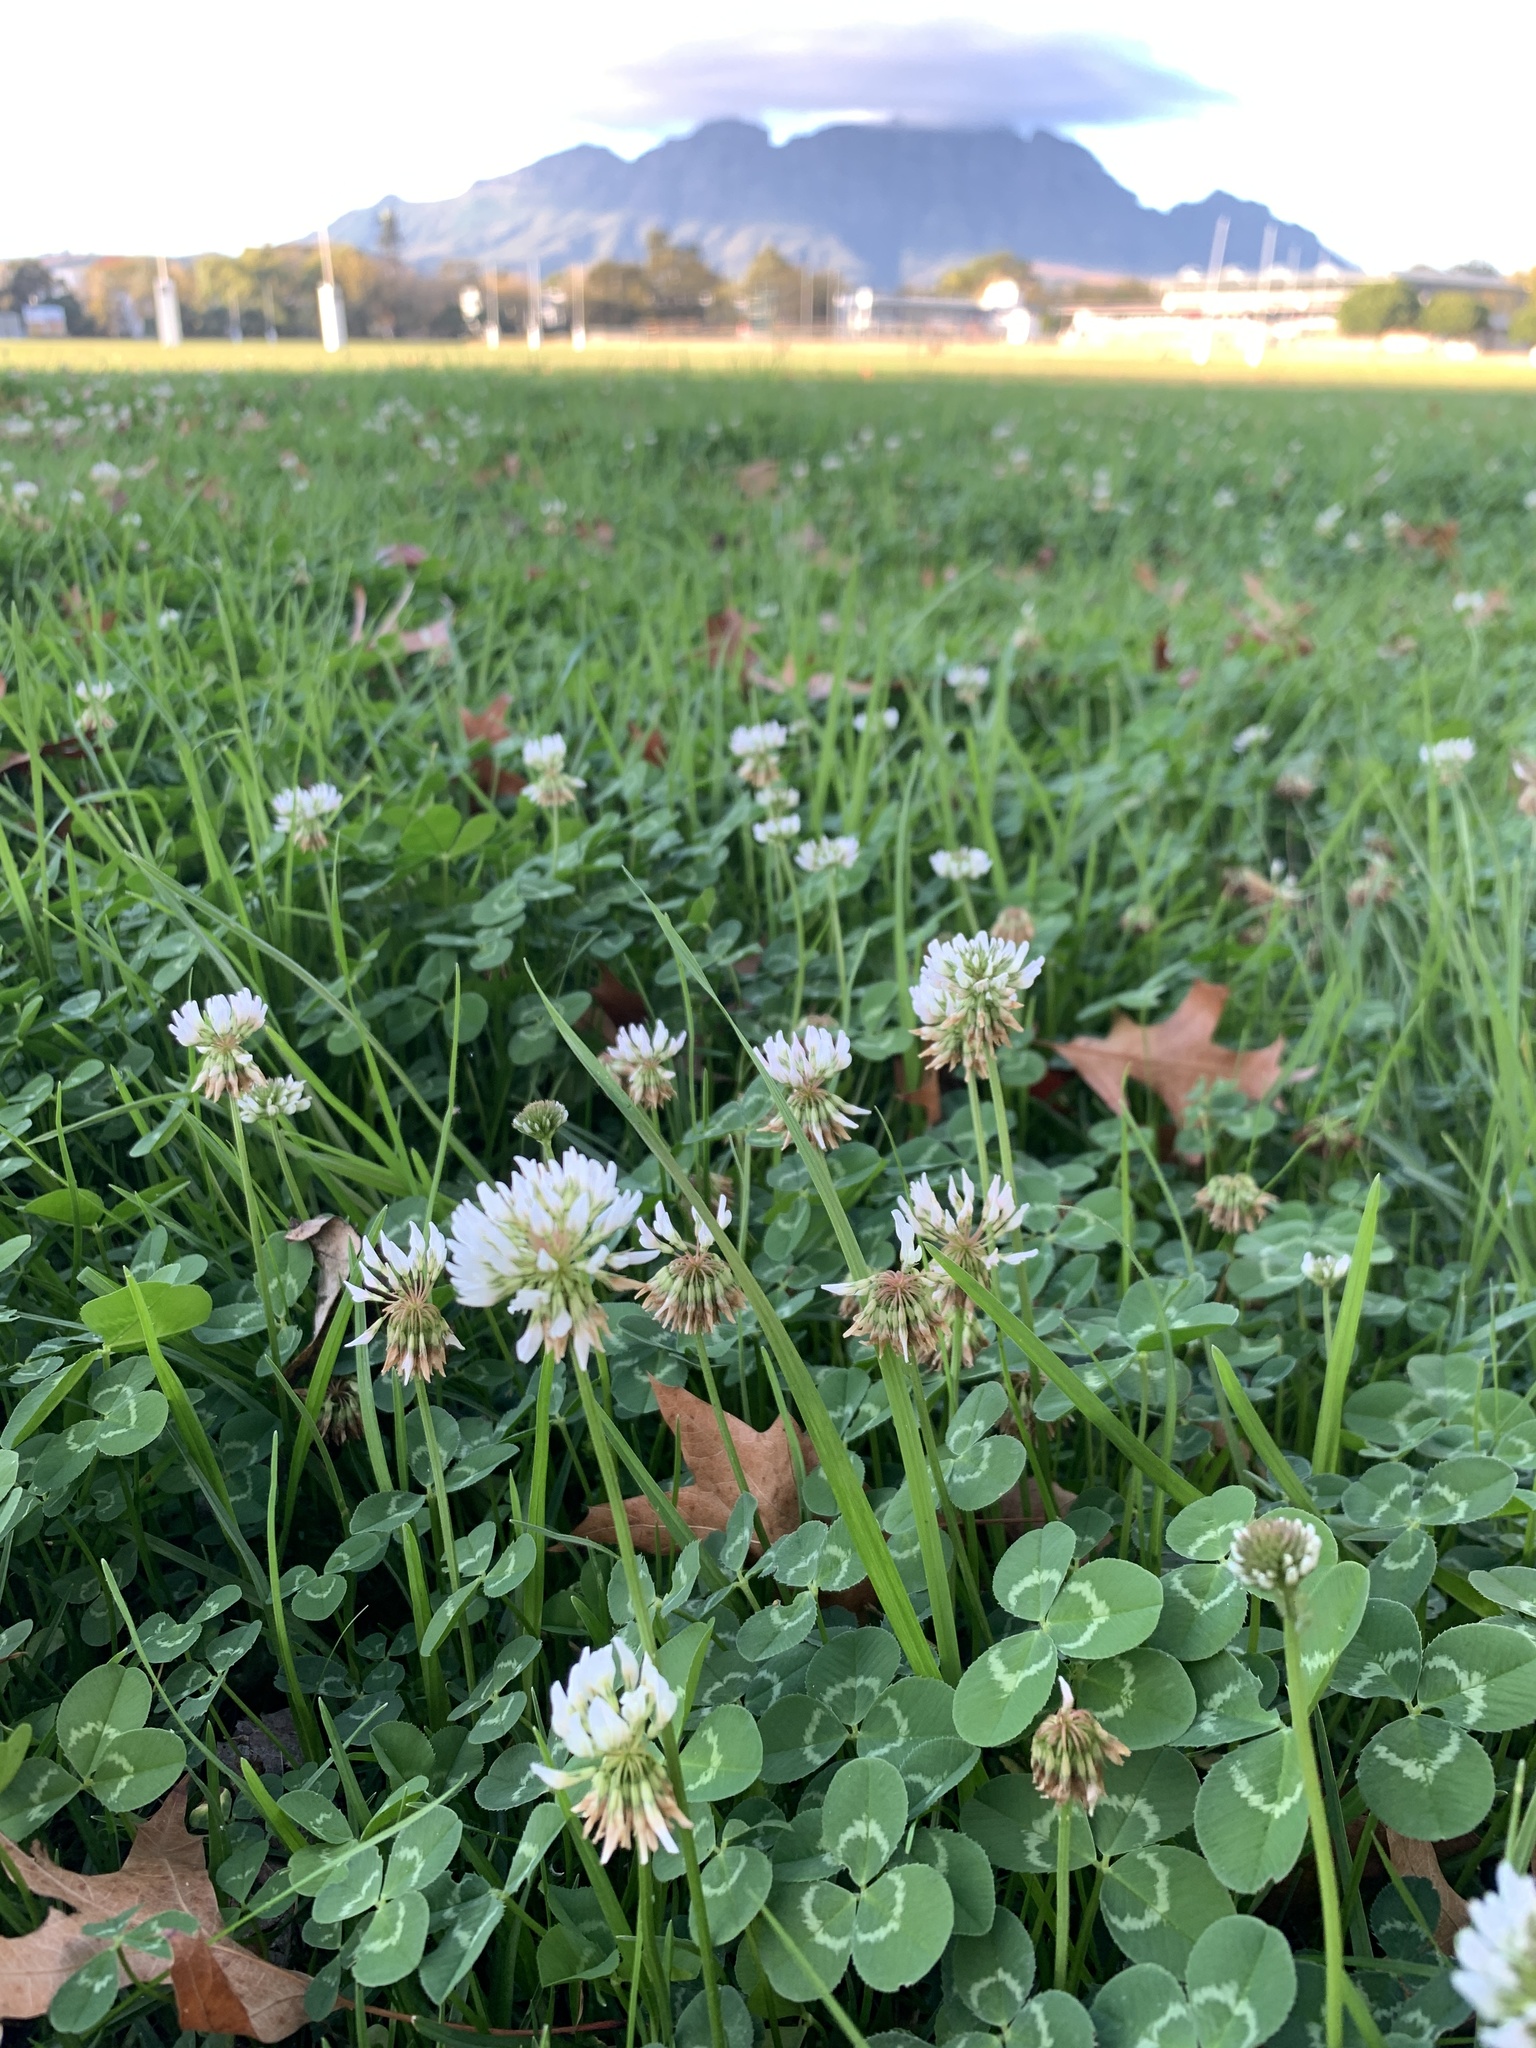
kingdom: Plantae
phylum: Tracheophyta
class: Magnoliopsida
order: Fabales
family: Fabaceae
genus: Trifolium
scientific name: Trifolium repens
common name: White clover
